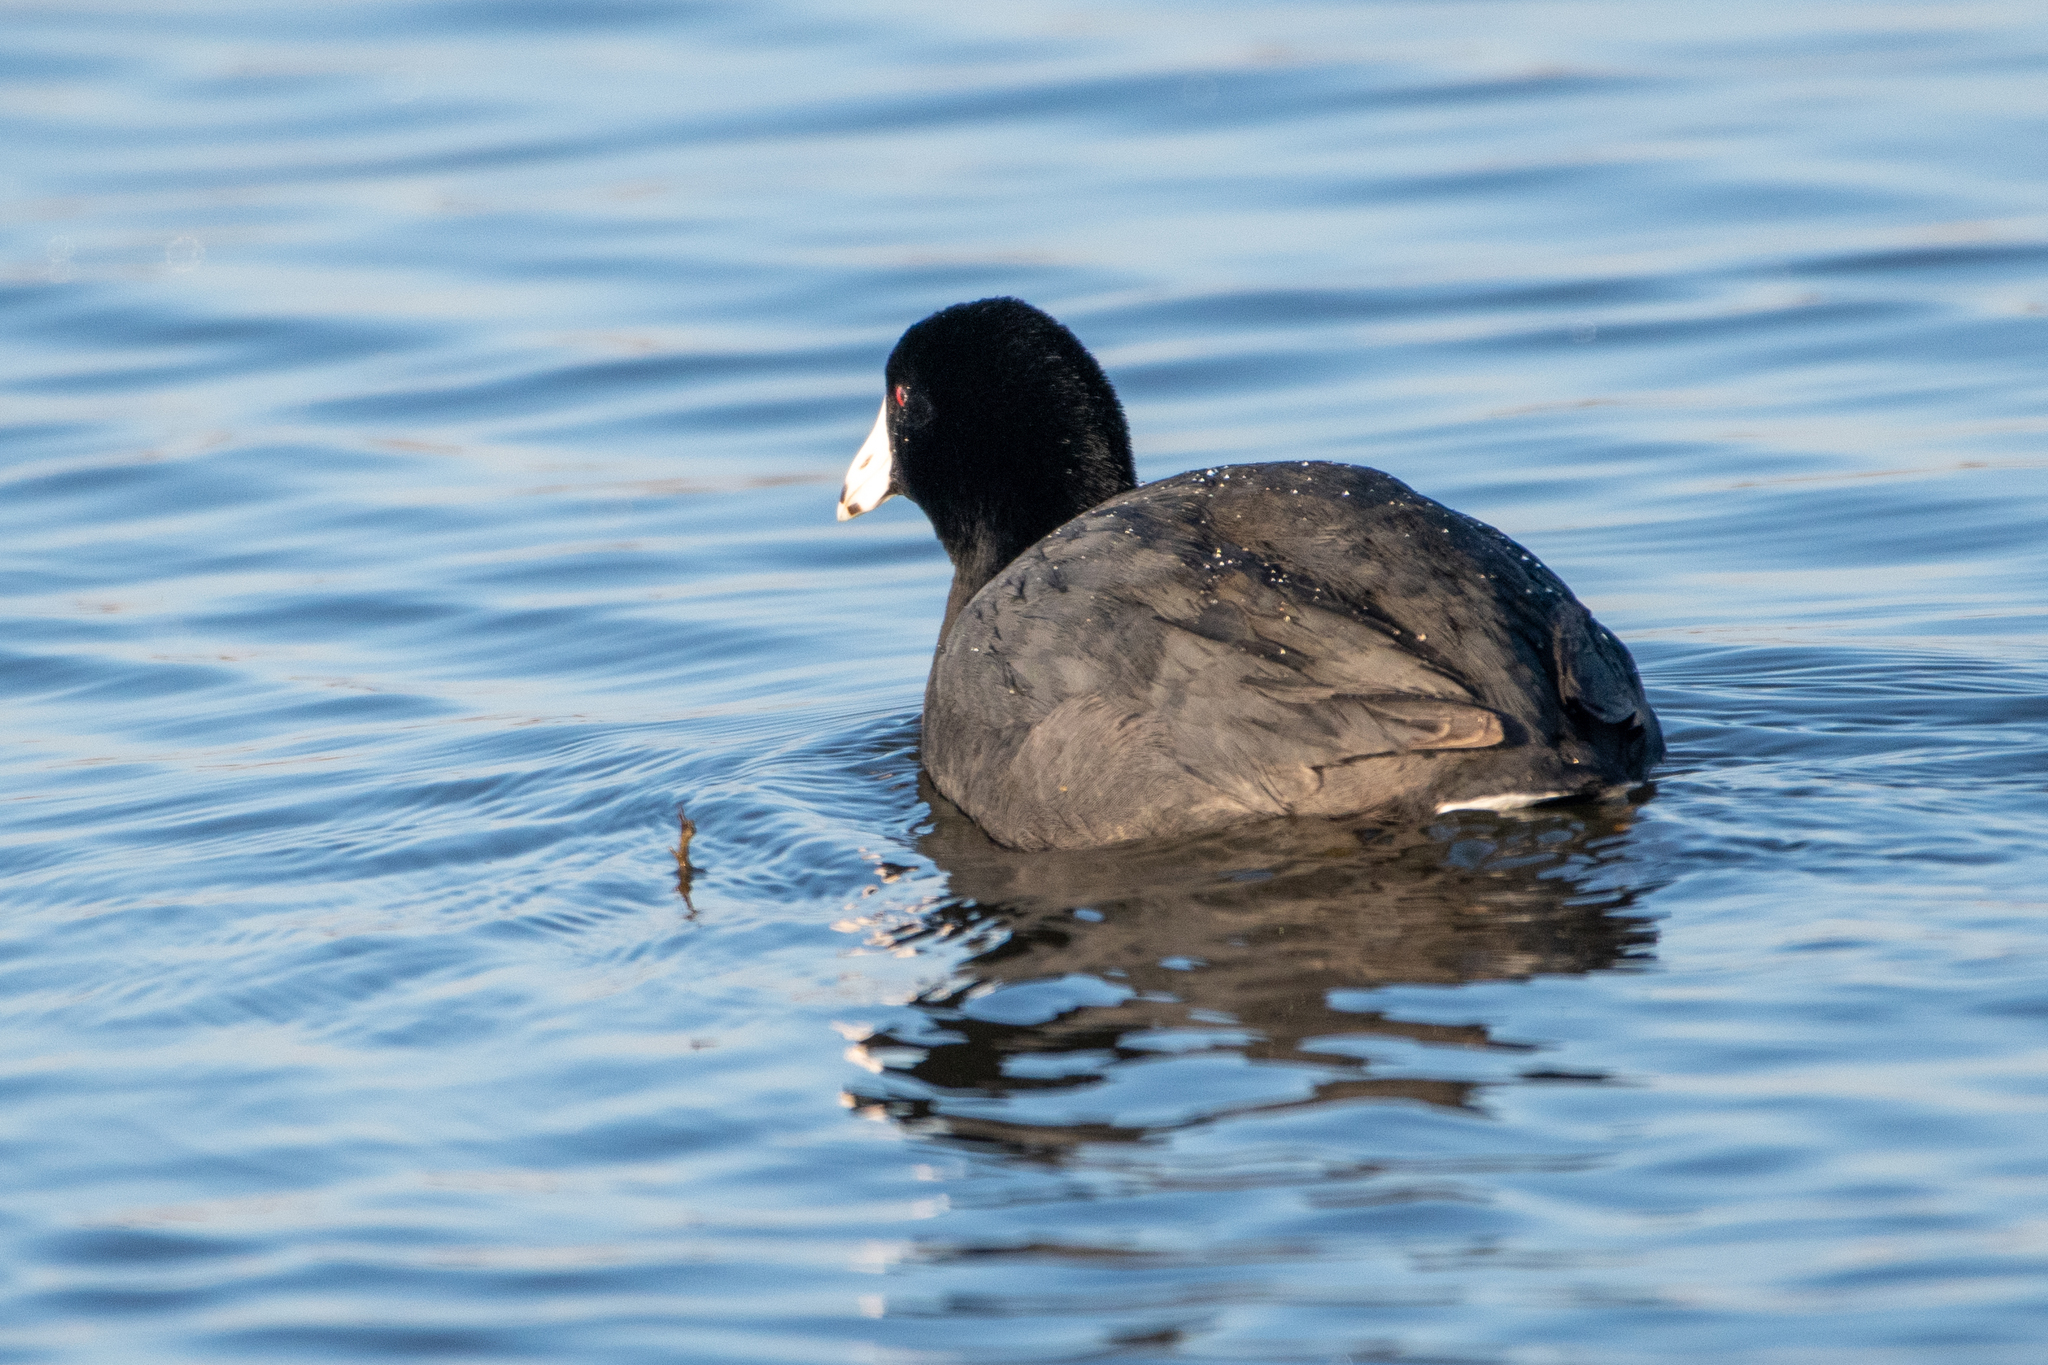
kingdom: Animalia
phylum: Chordata
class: Aves
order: Gruiformes
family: Rallidae
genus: Fulica
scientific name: Fulica americana
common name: American coot
